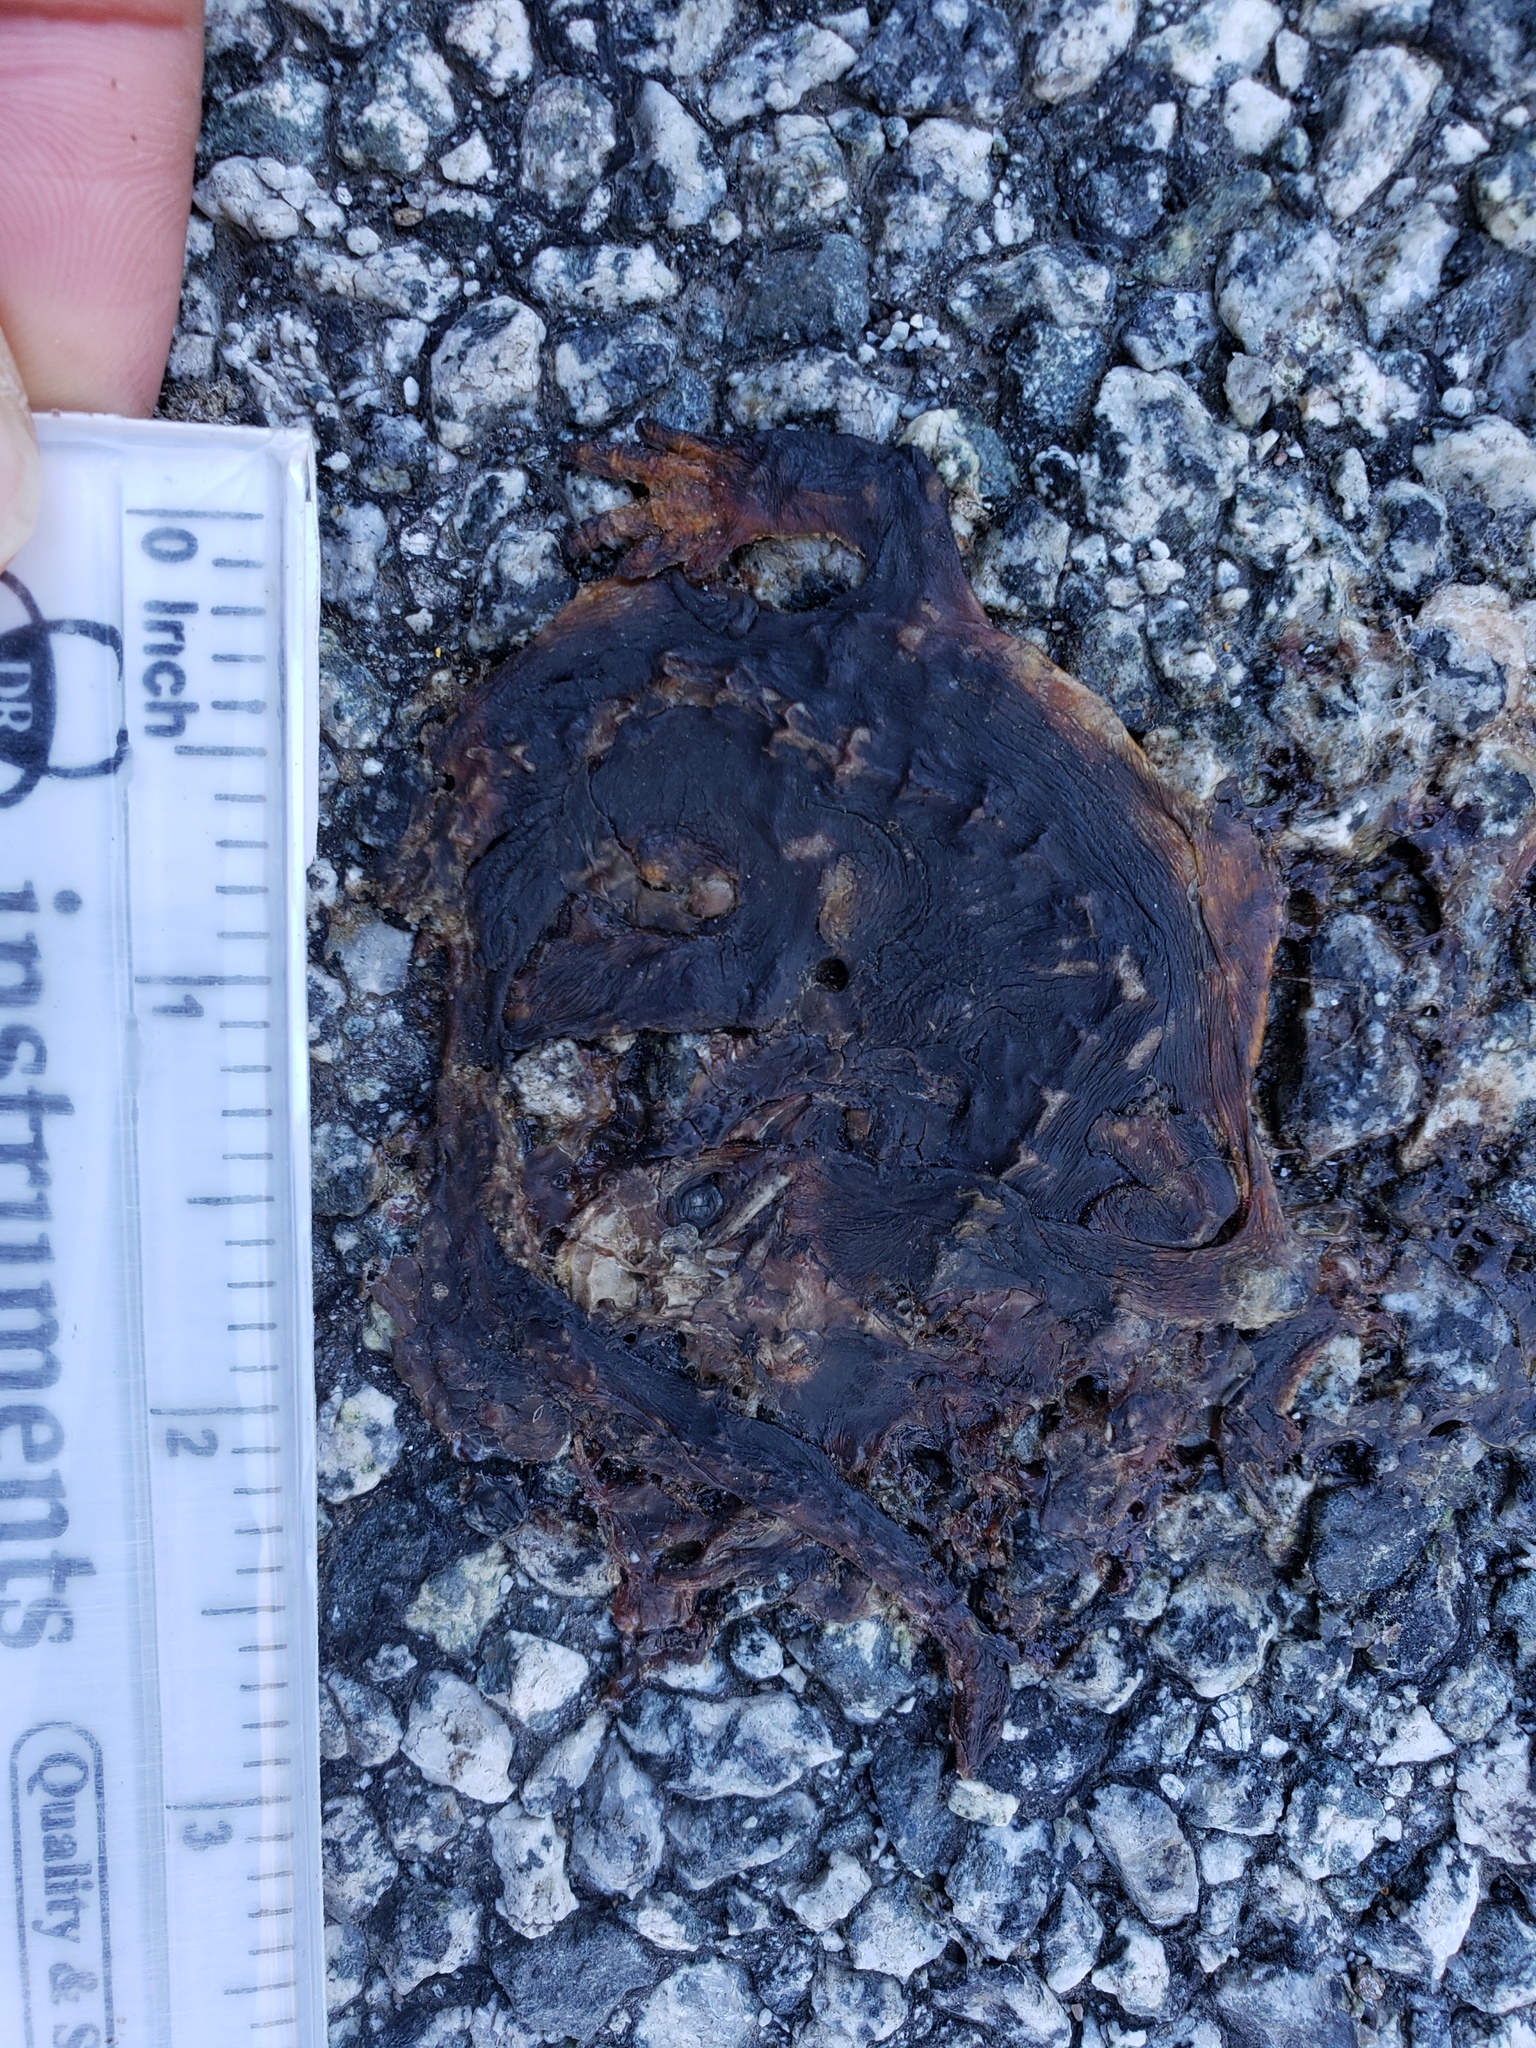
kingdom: Animalia
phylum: Chordata
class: Amphibia
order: Caudata
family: Salamandridae
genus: Taricha
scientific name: Taricha
